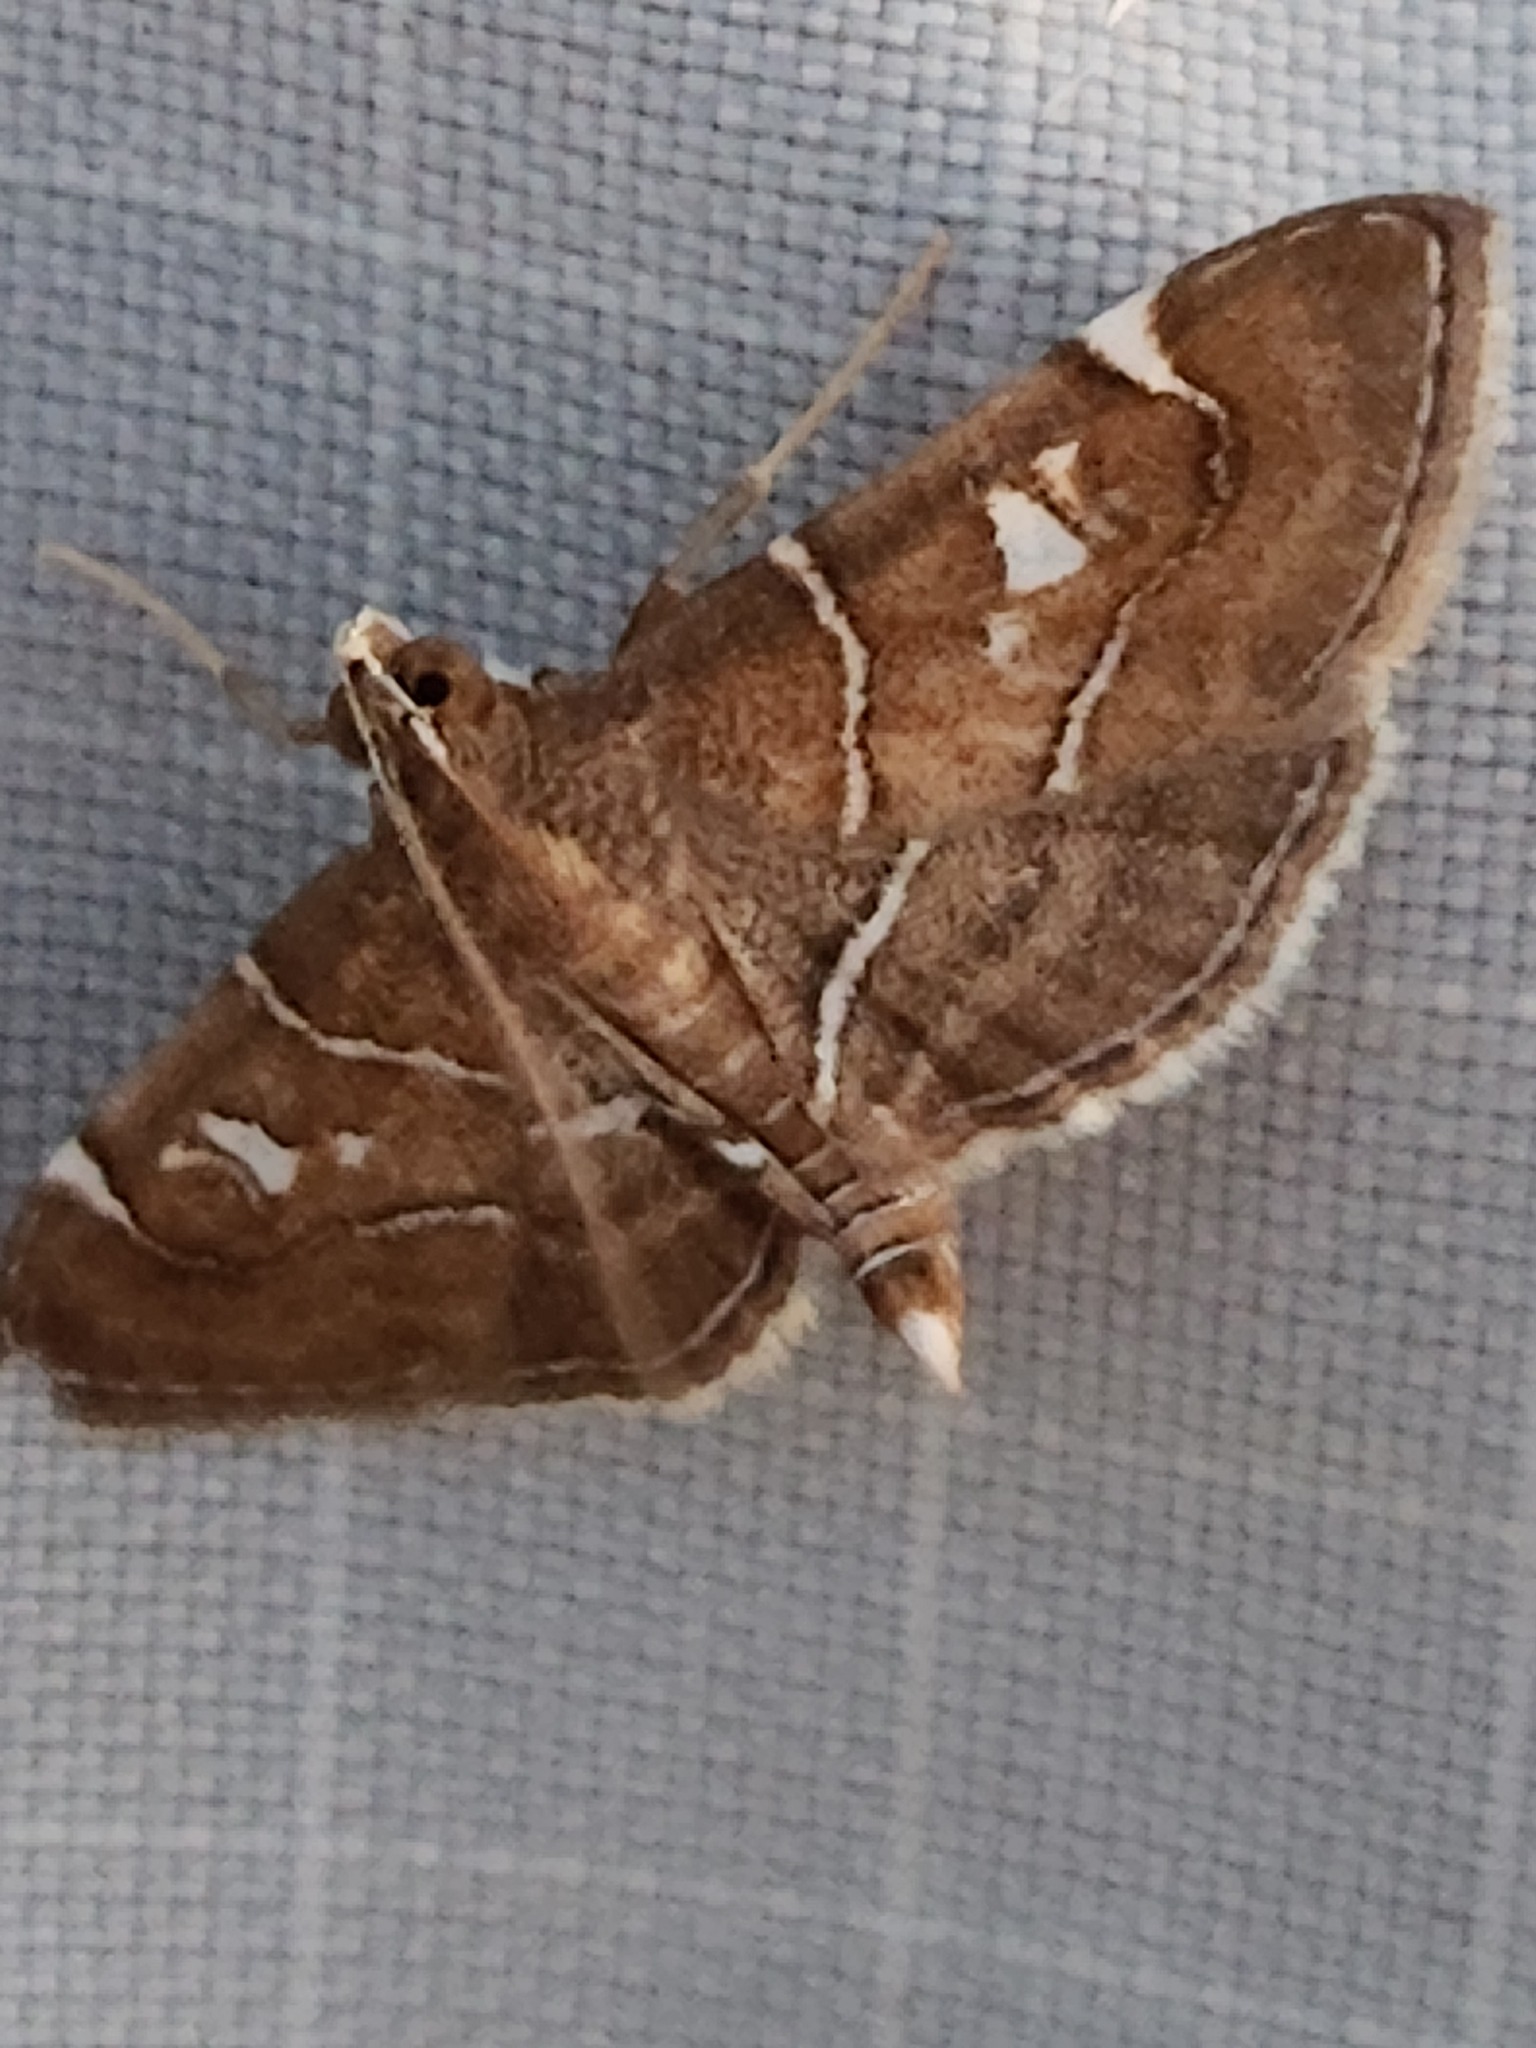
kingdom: Animalia
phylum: Arthropoda
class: Insecta
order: Lepidoptera
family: Crambidae
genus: Lamprosema
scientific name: Lamprosema victoriae
